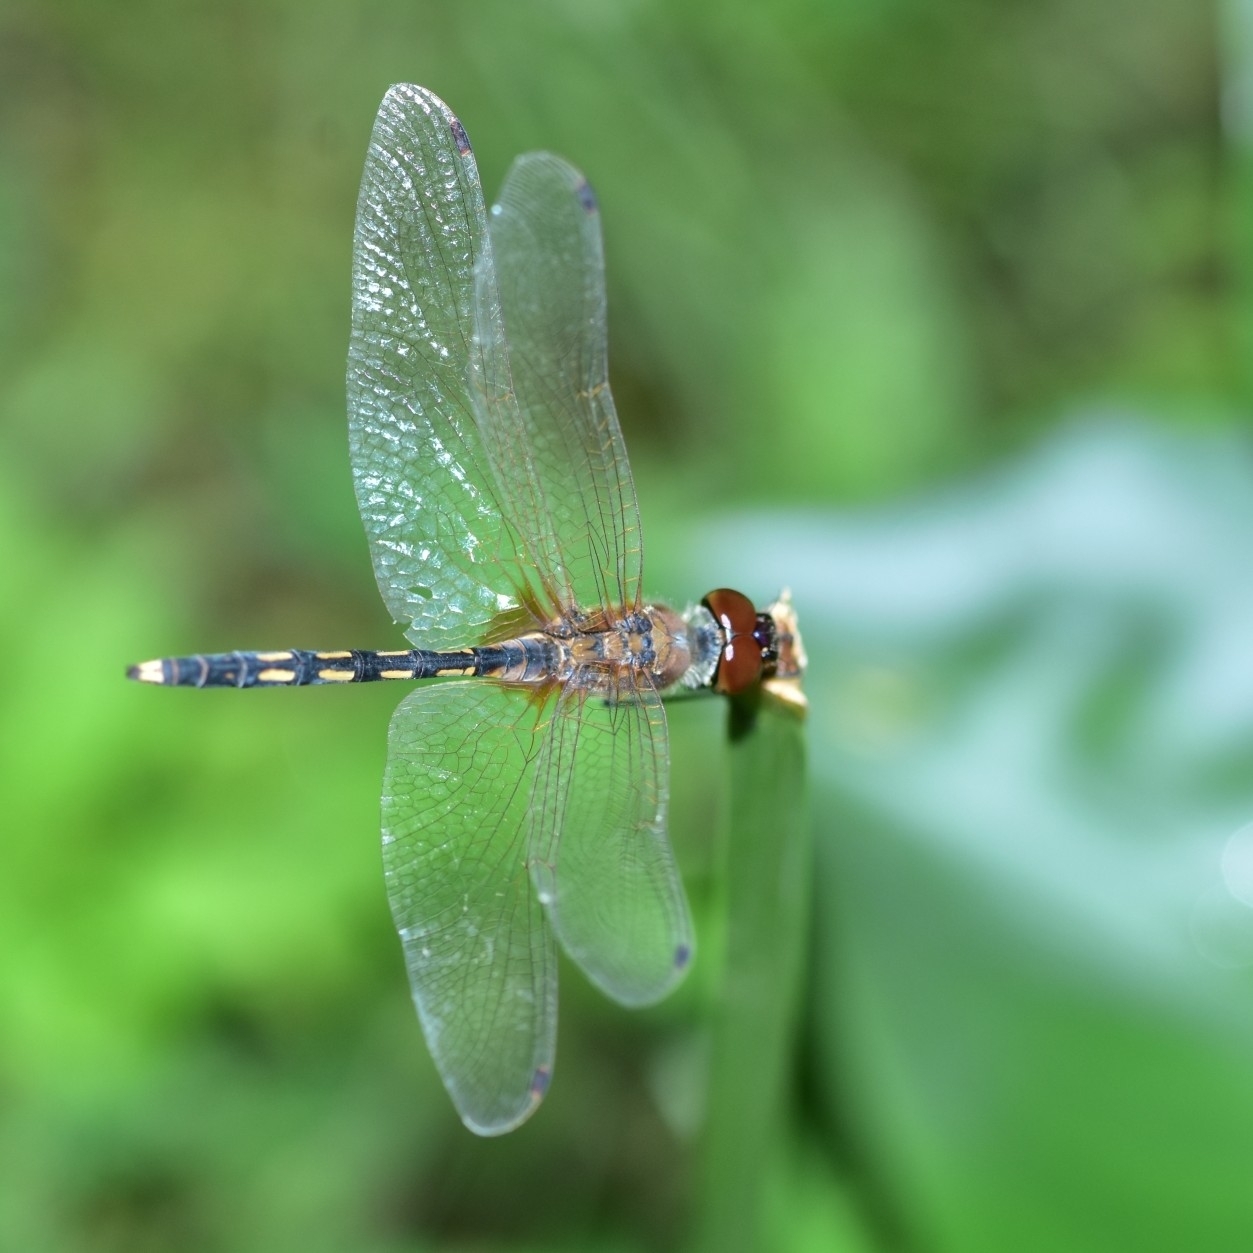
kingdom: Animalia
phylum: Arthropoda
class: Insecta
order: Odonata
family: Libellulidae
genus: Trithemis
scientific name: Trithemis pallidinervis
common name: Dancing dropwing
